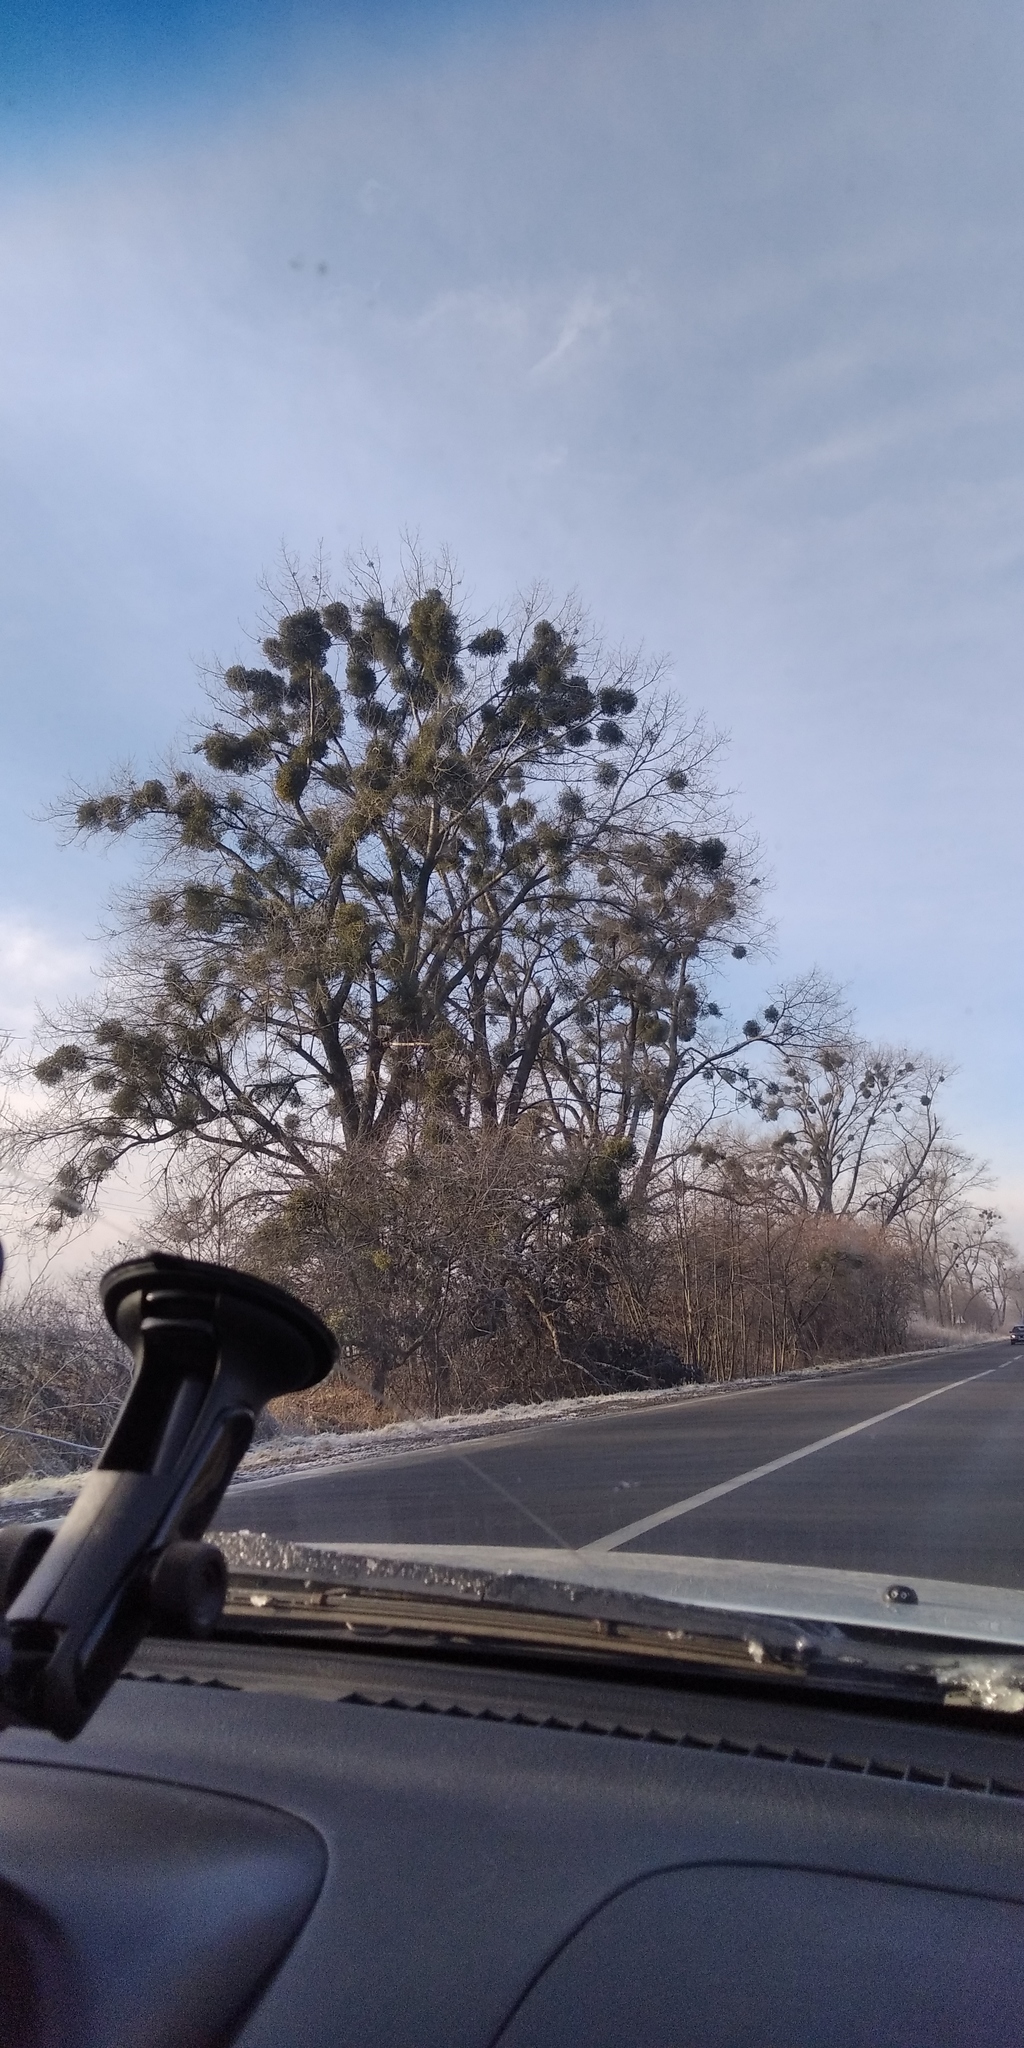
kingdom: Plantae
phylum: Tracheophyta
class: Magnoliopsida
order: Santalales
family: Viscaceae
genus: Viscum
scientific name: Viscum album
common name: Mistletoe
